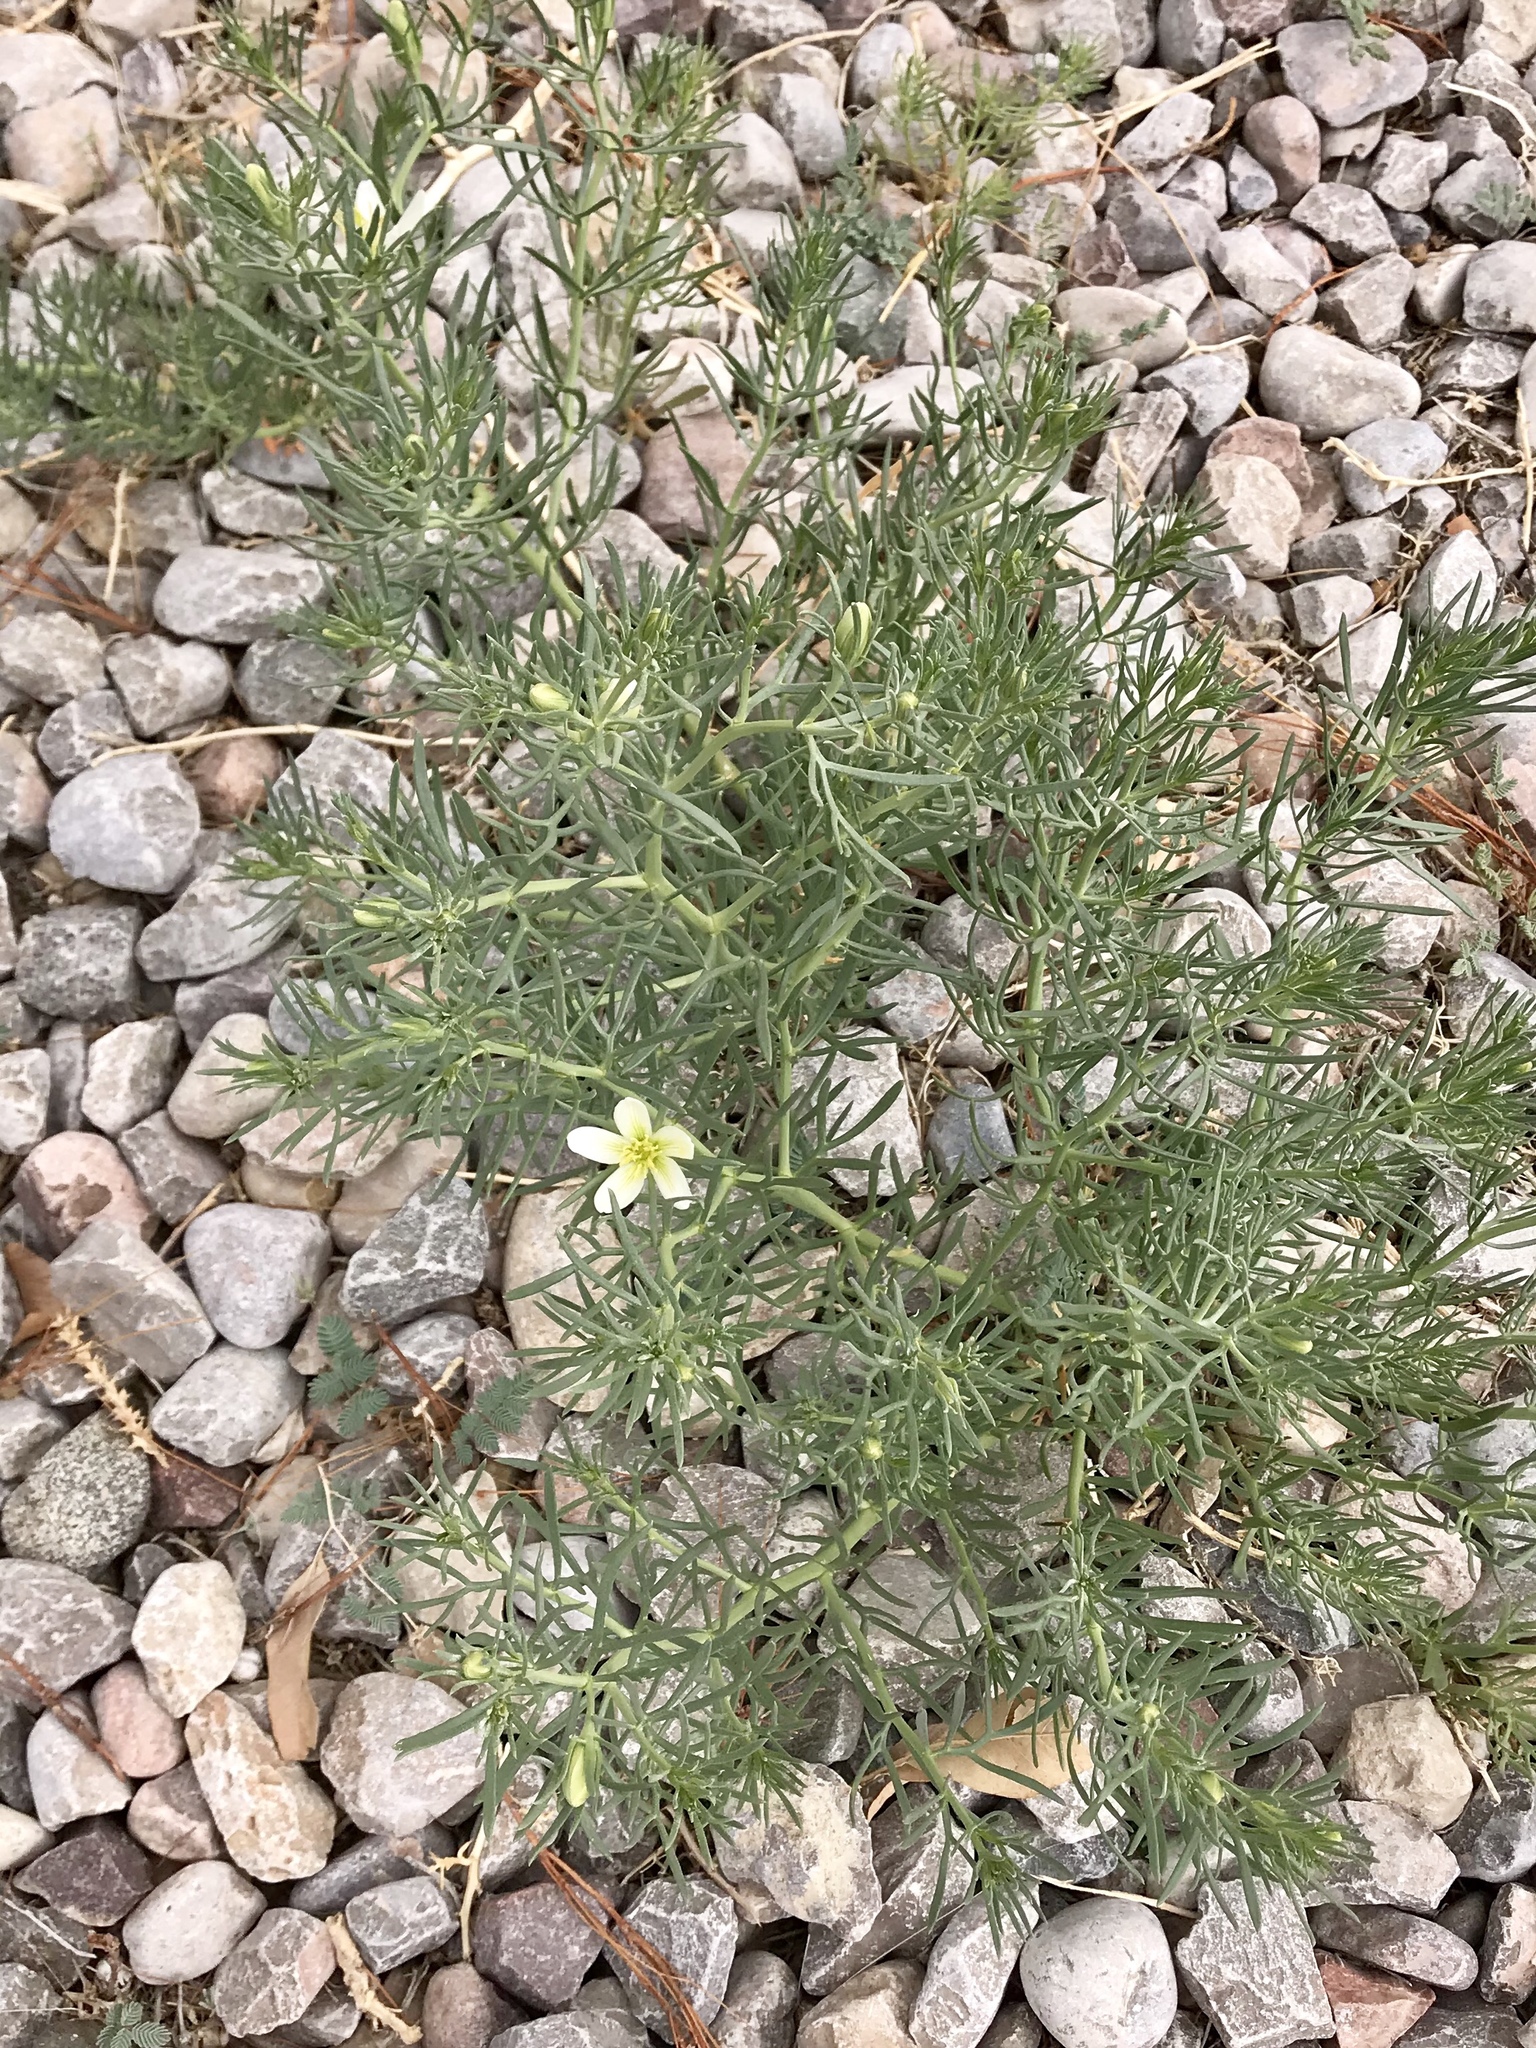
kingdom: Plantae
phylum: Tracheophyta
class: Magnoliopsida
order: Sapindales
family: Tetradiclidaceae
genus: Peganum
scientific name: Peganum harmala
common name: Harmal peganum
